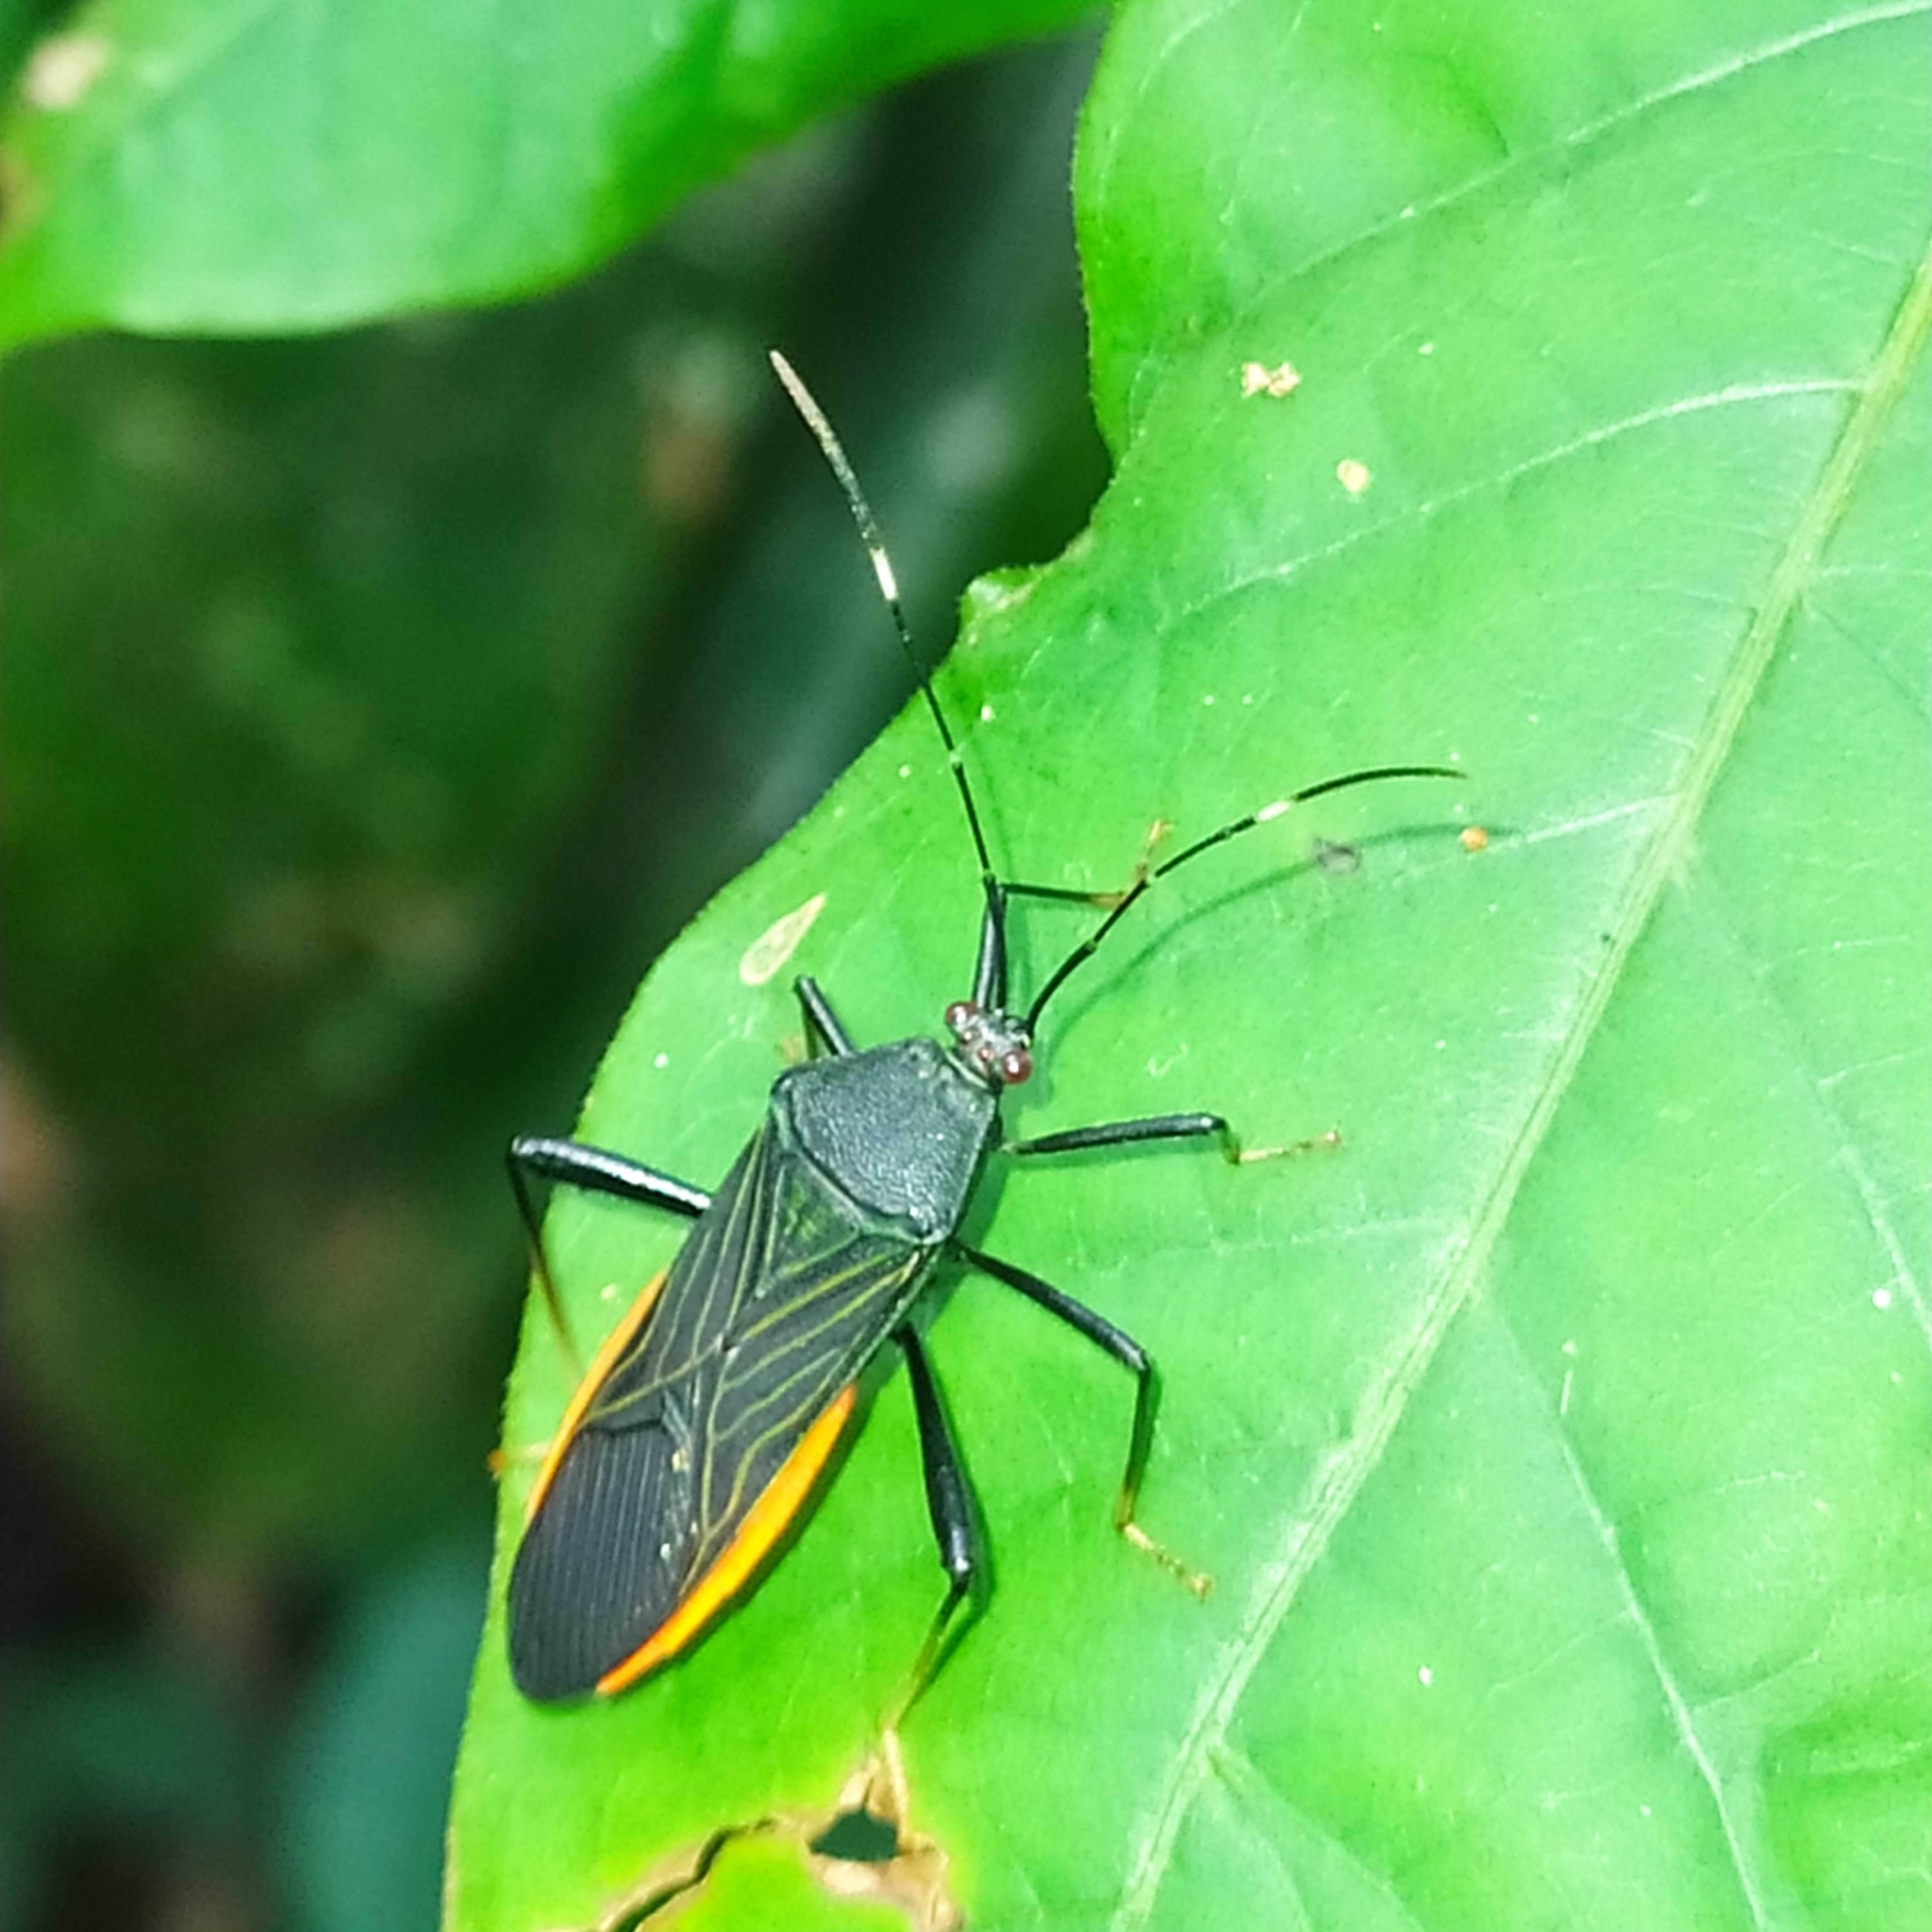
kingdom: Animalia
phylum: Arthropoda
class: Insecta
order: Hemiptera
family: Coreidae
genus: Nematopus
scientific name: Nematopus indus
